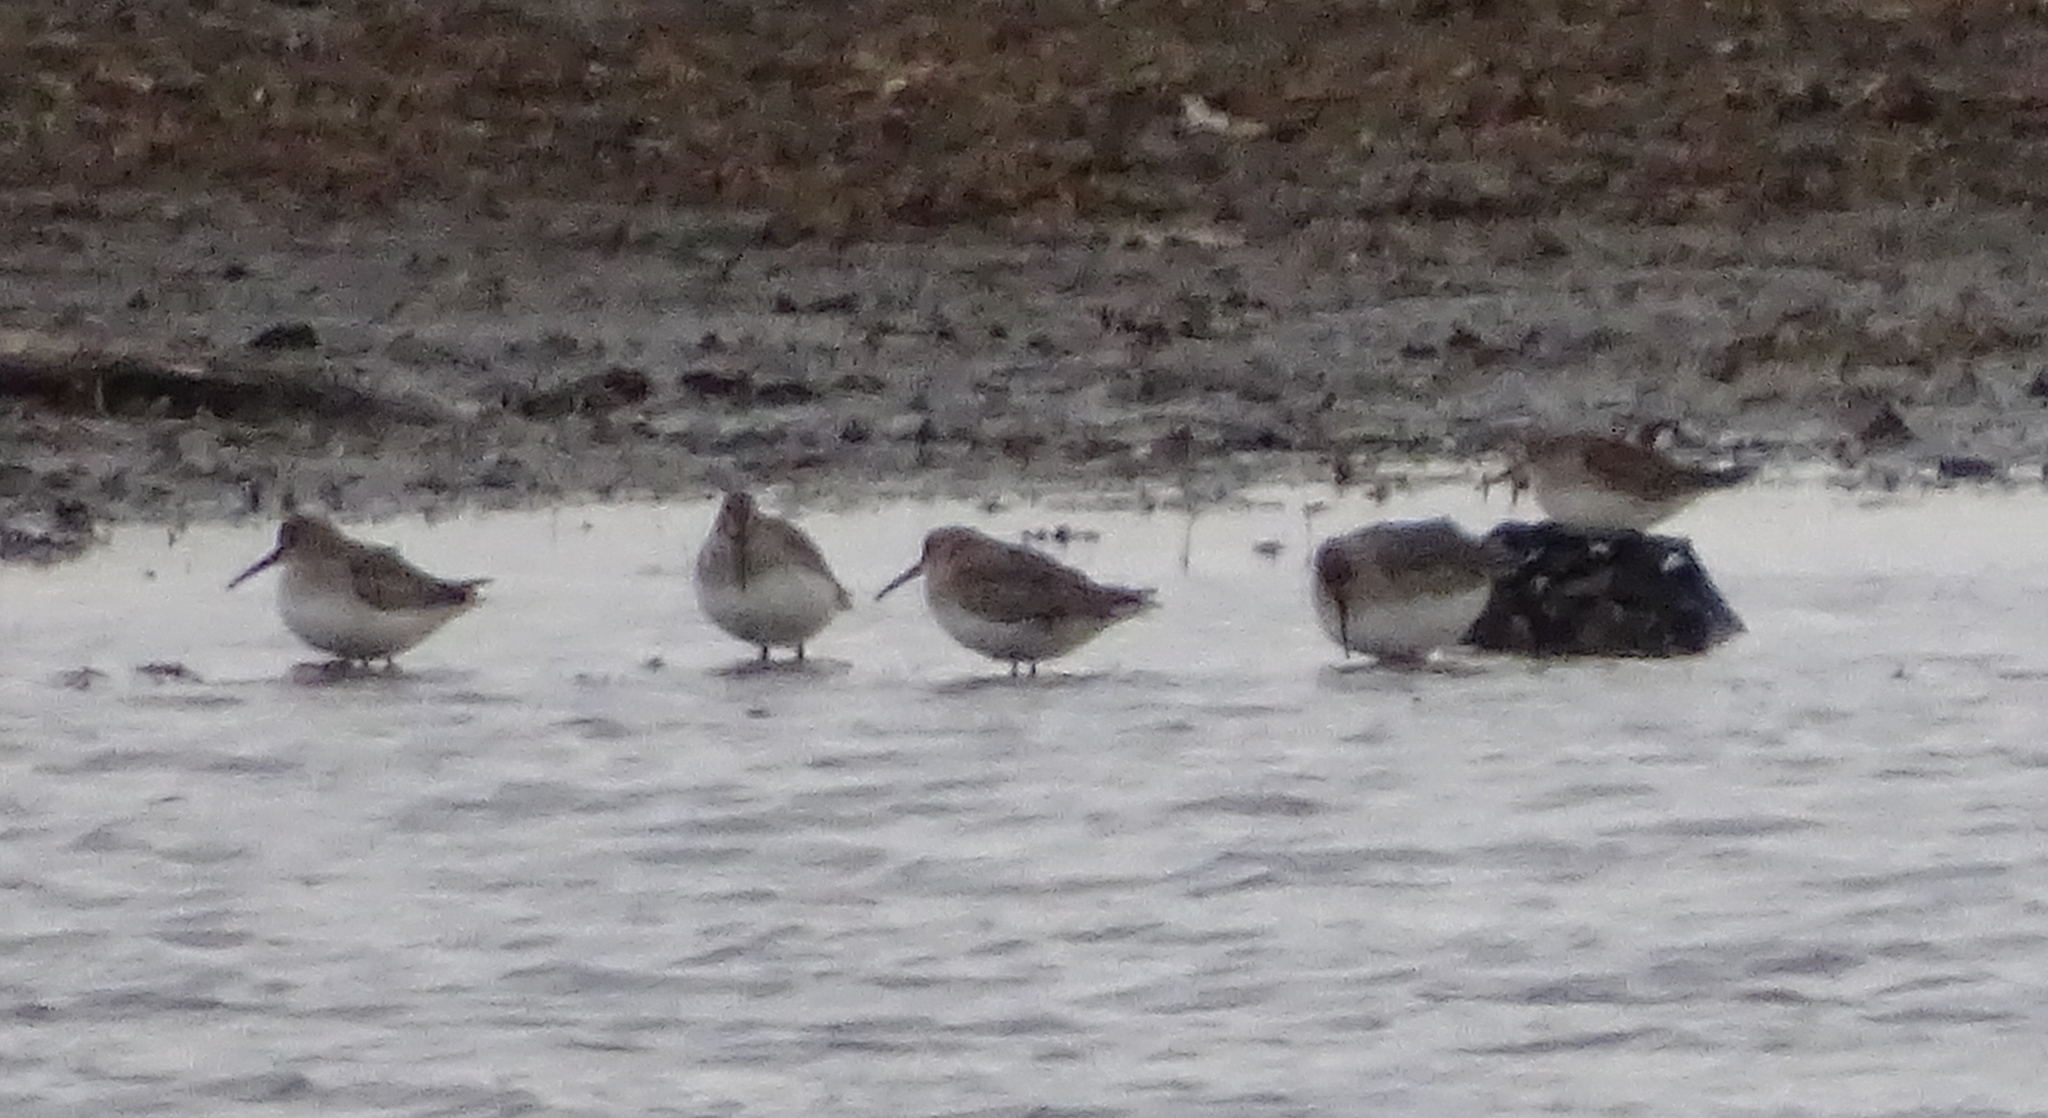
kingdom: Animalia
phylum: Chordata
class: Aves
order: Charadriiformes
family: Scolopacidae
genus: Calidris
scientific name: Calidris alpina
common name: Dunlin
